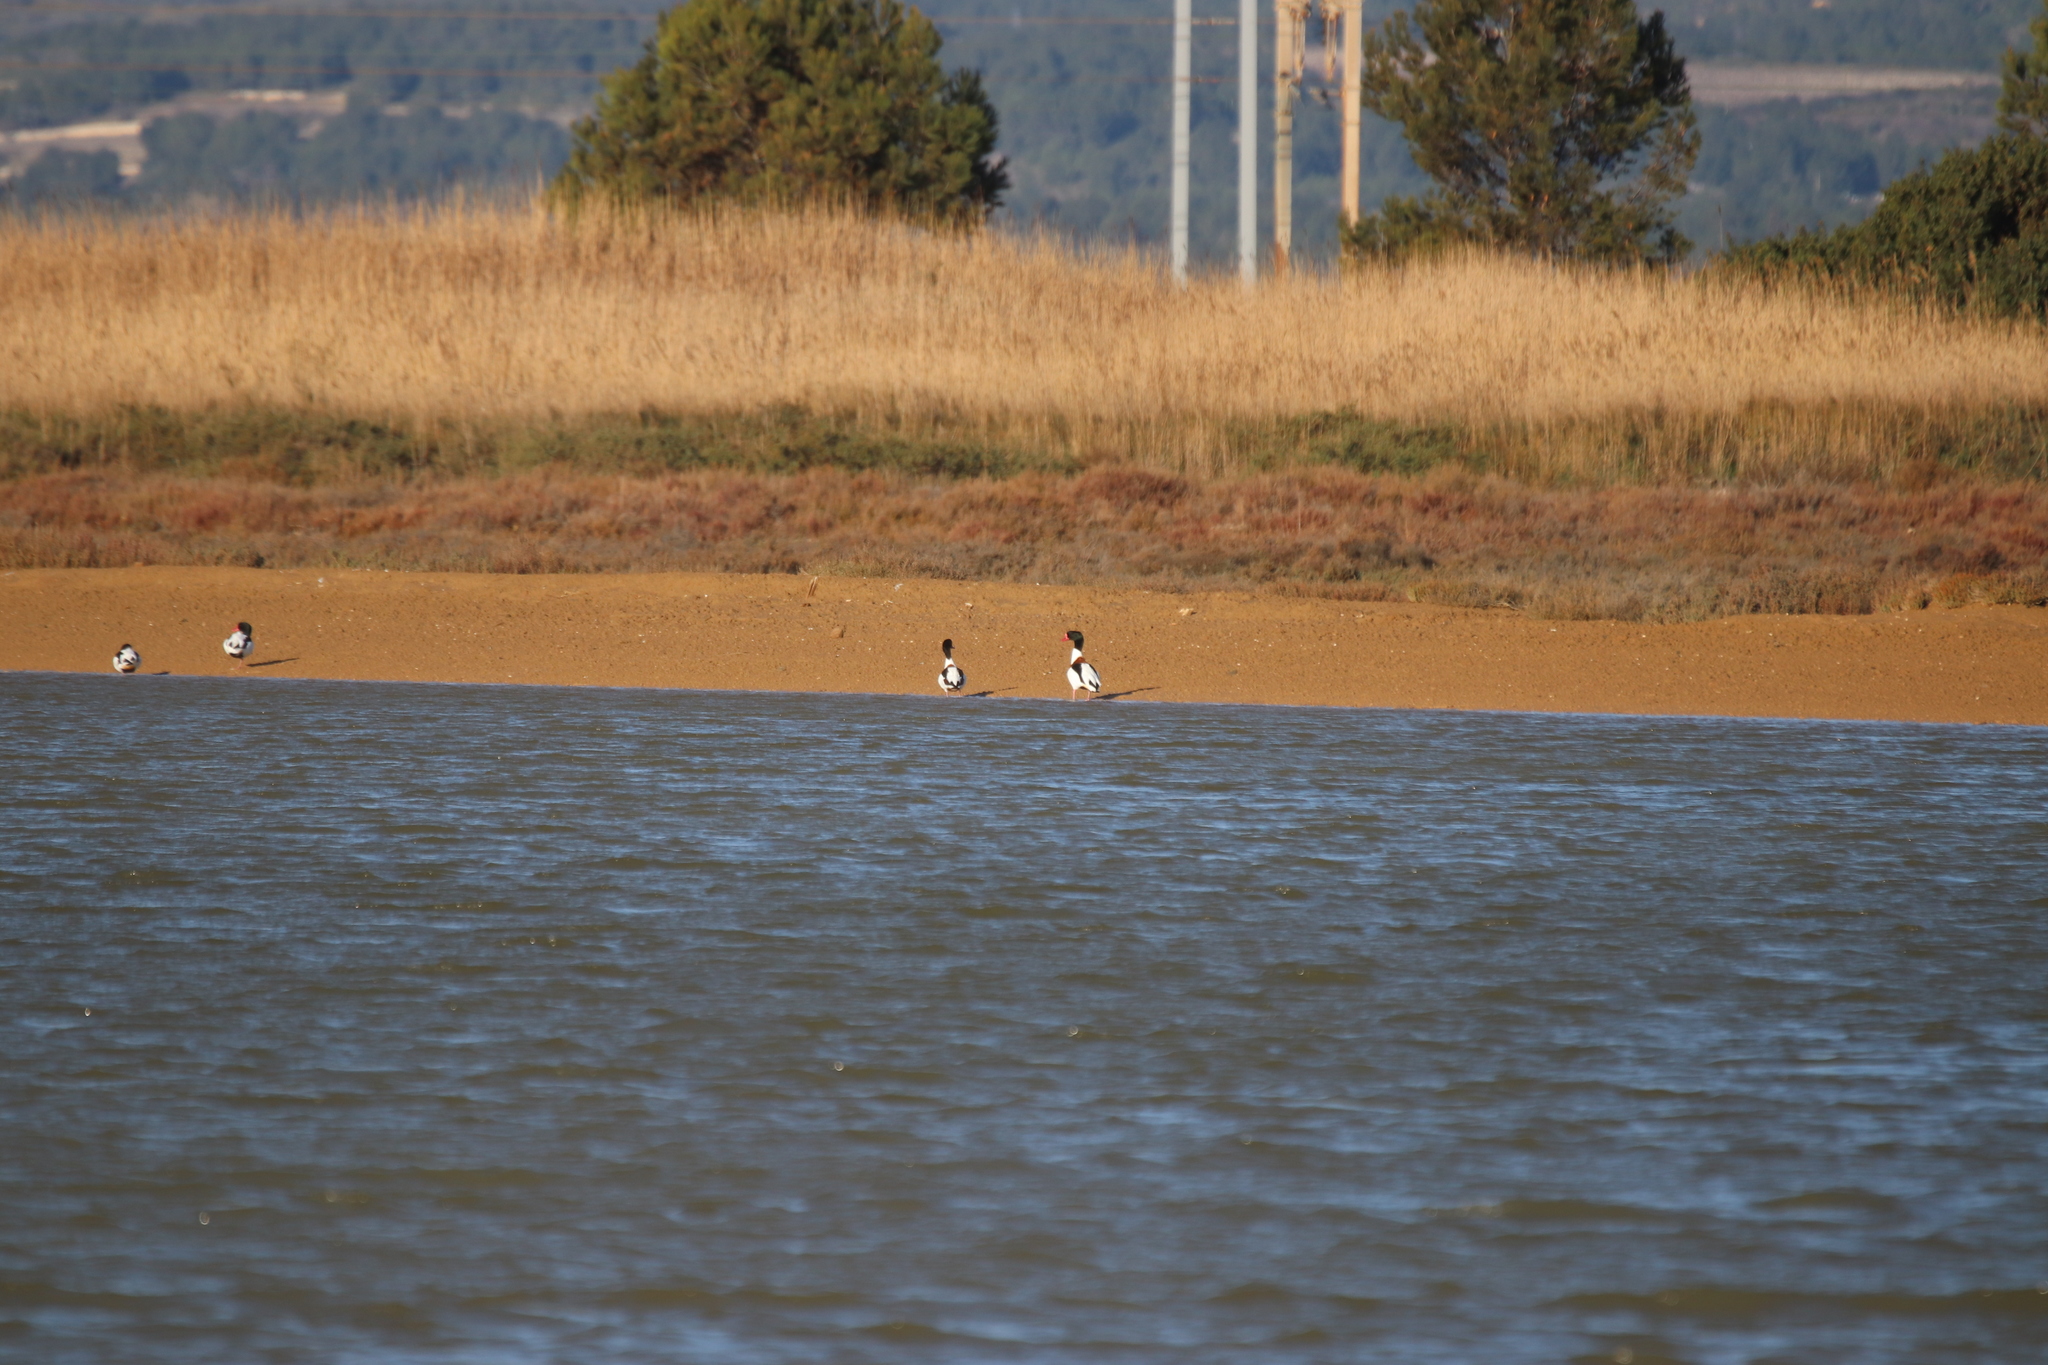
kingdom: Animalia
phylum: Chordata
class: Aves
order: Anseriformes
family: Anatidae
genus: Tadorna
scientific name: Tadorna tadorna
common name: Common shelduck
